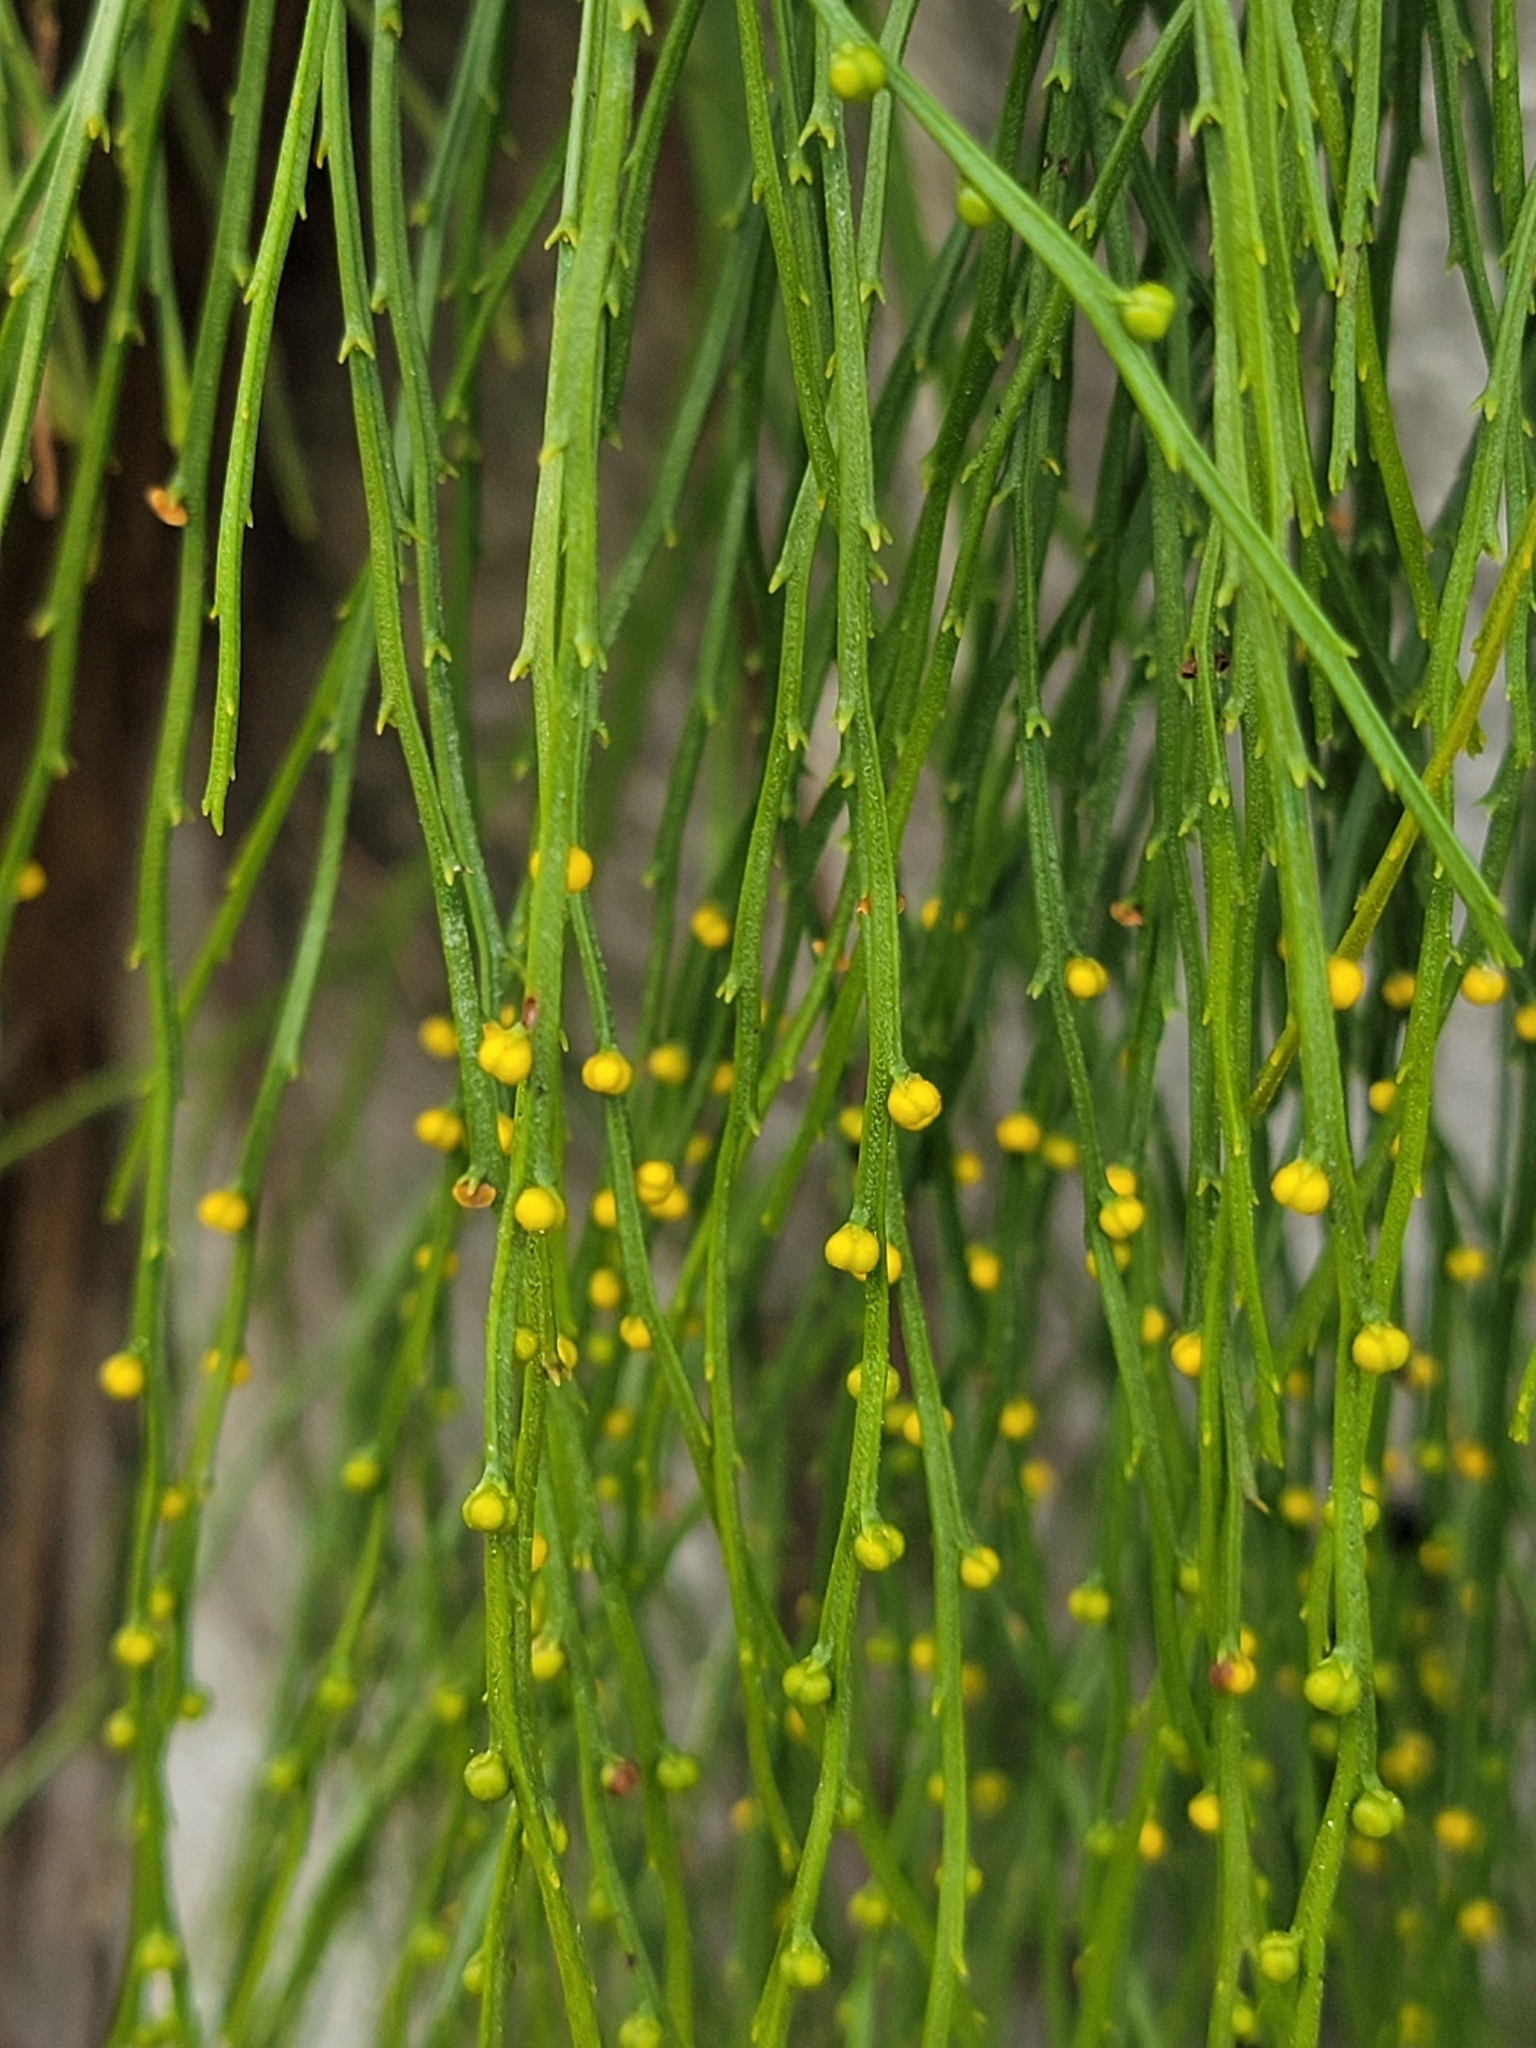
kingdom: Plantae
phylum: Tracheophyta
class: Polypodiopsida
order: Psilotales
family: Psilotaceae
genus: Psilotum
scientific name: Psilotum nudum
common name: Skeleton fork fern
